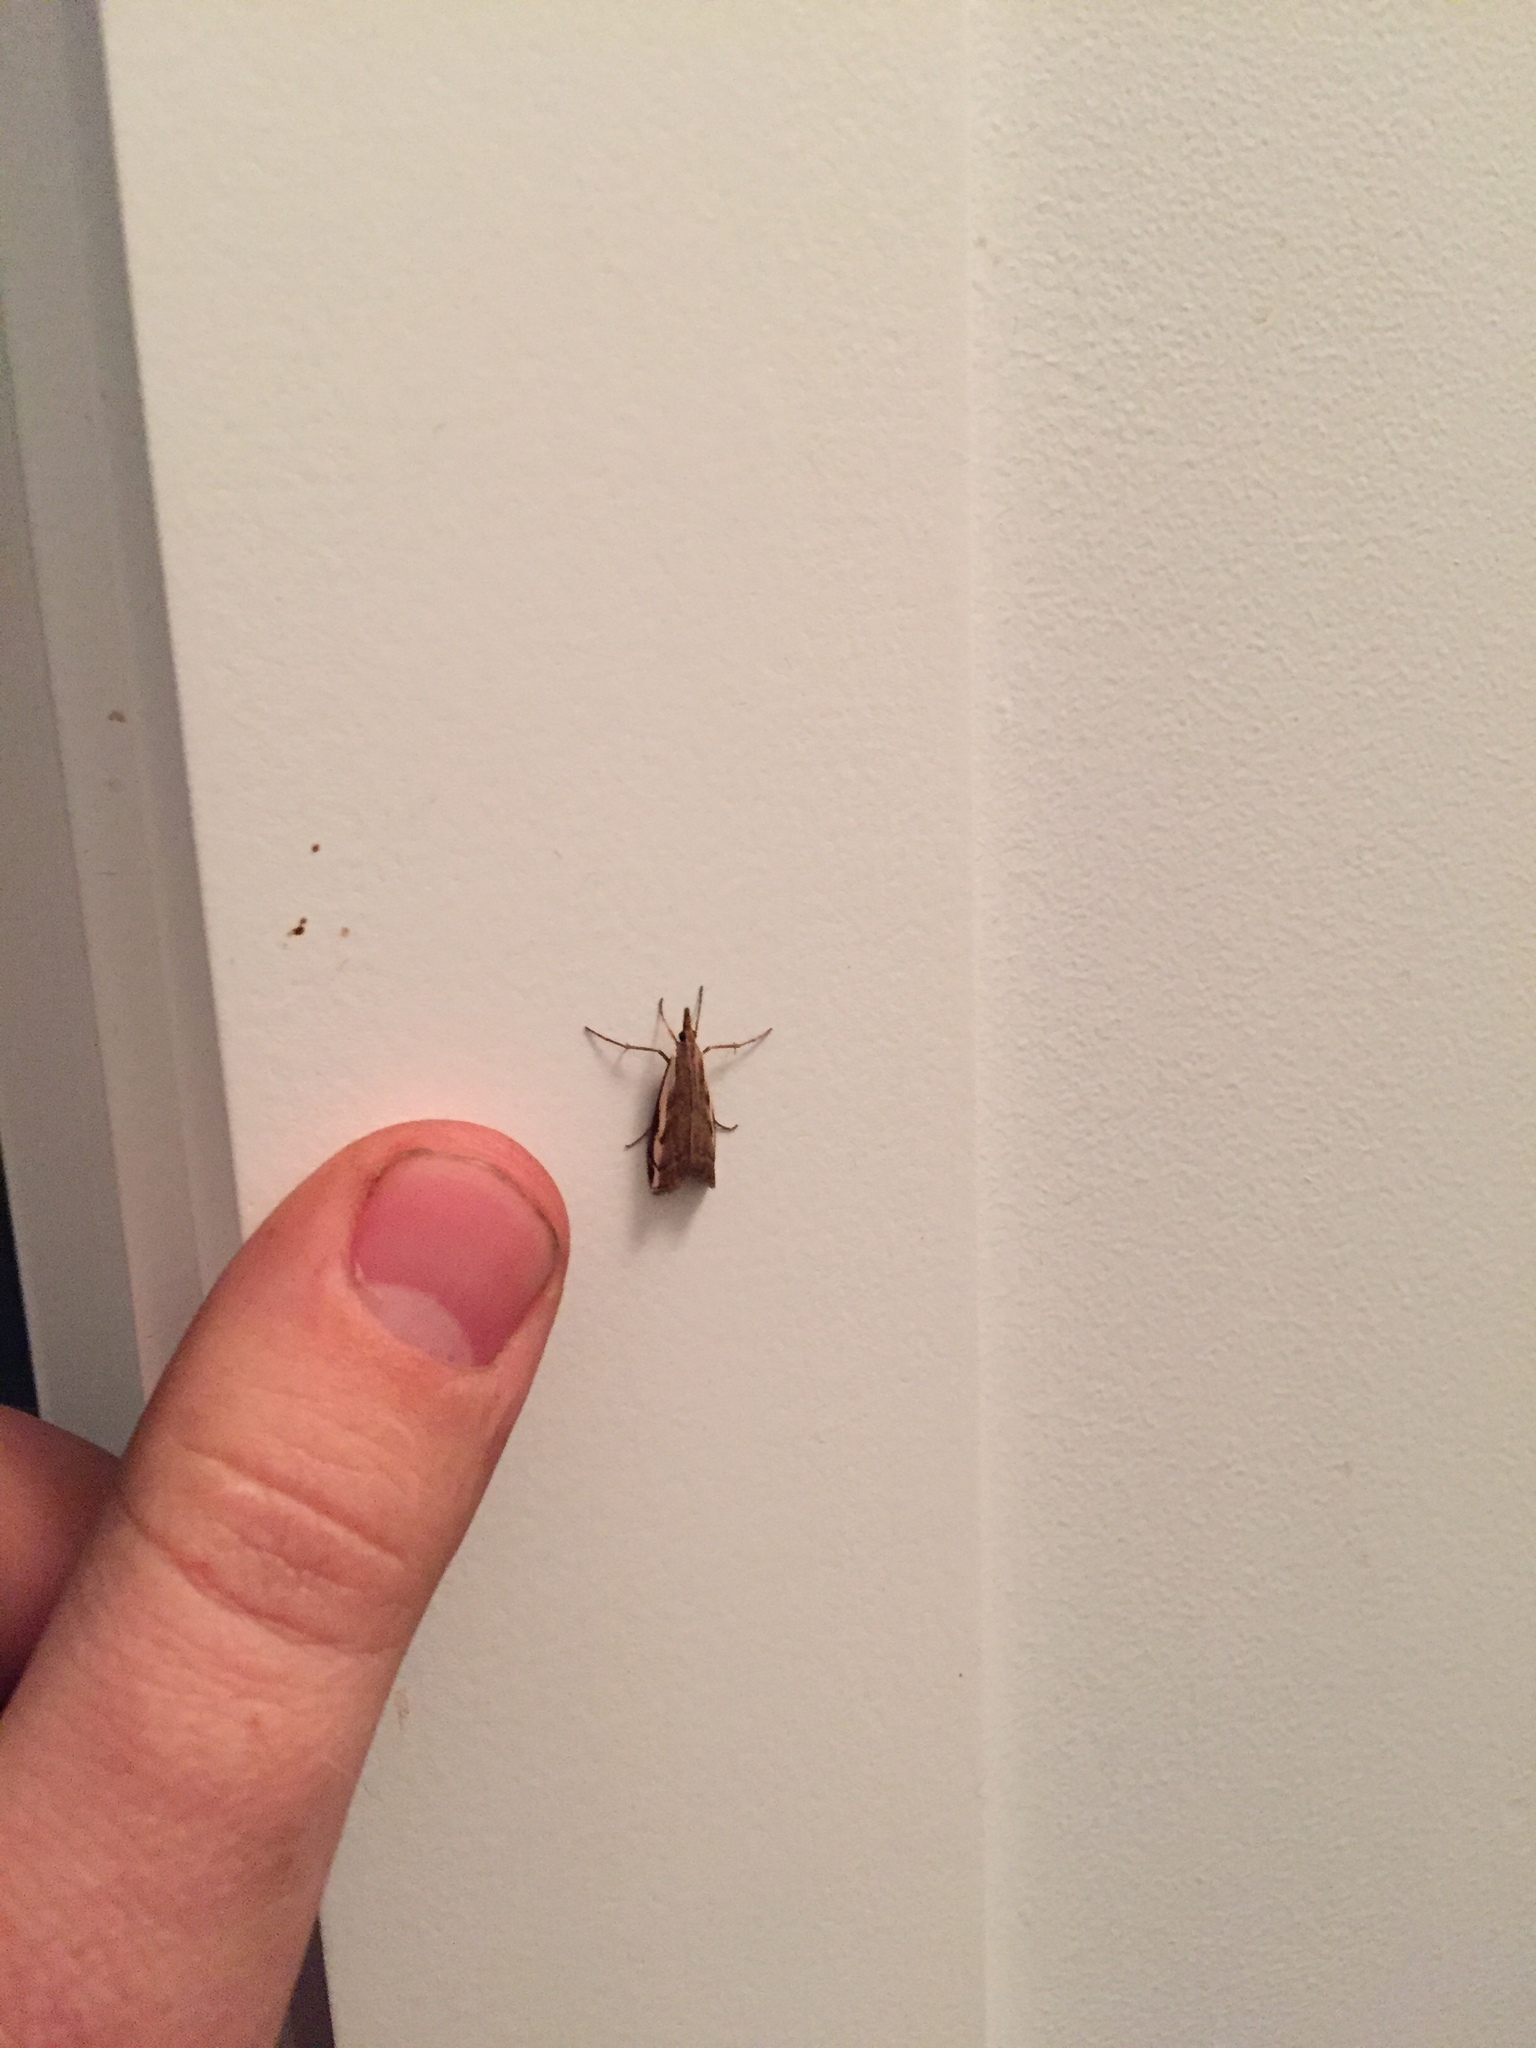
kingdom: Animalia
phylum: Arthropoda
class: Insecta
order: Lepidoptera
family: Crambidae
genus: Orocrambus
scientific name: Orocrambus flexuosellus
